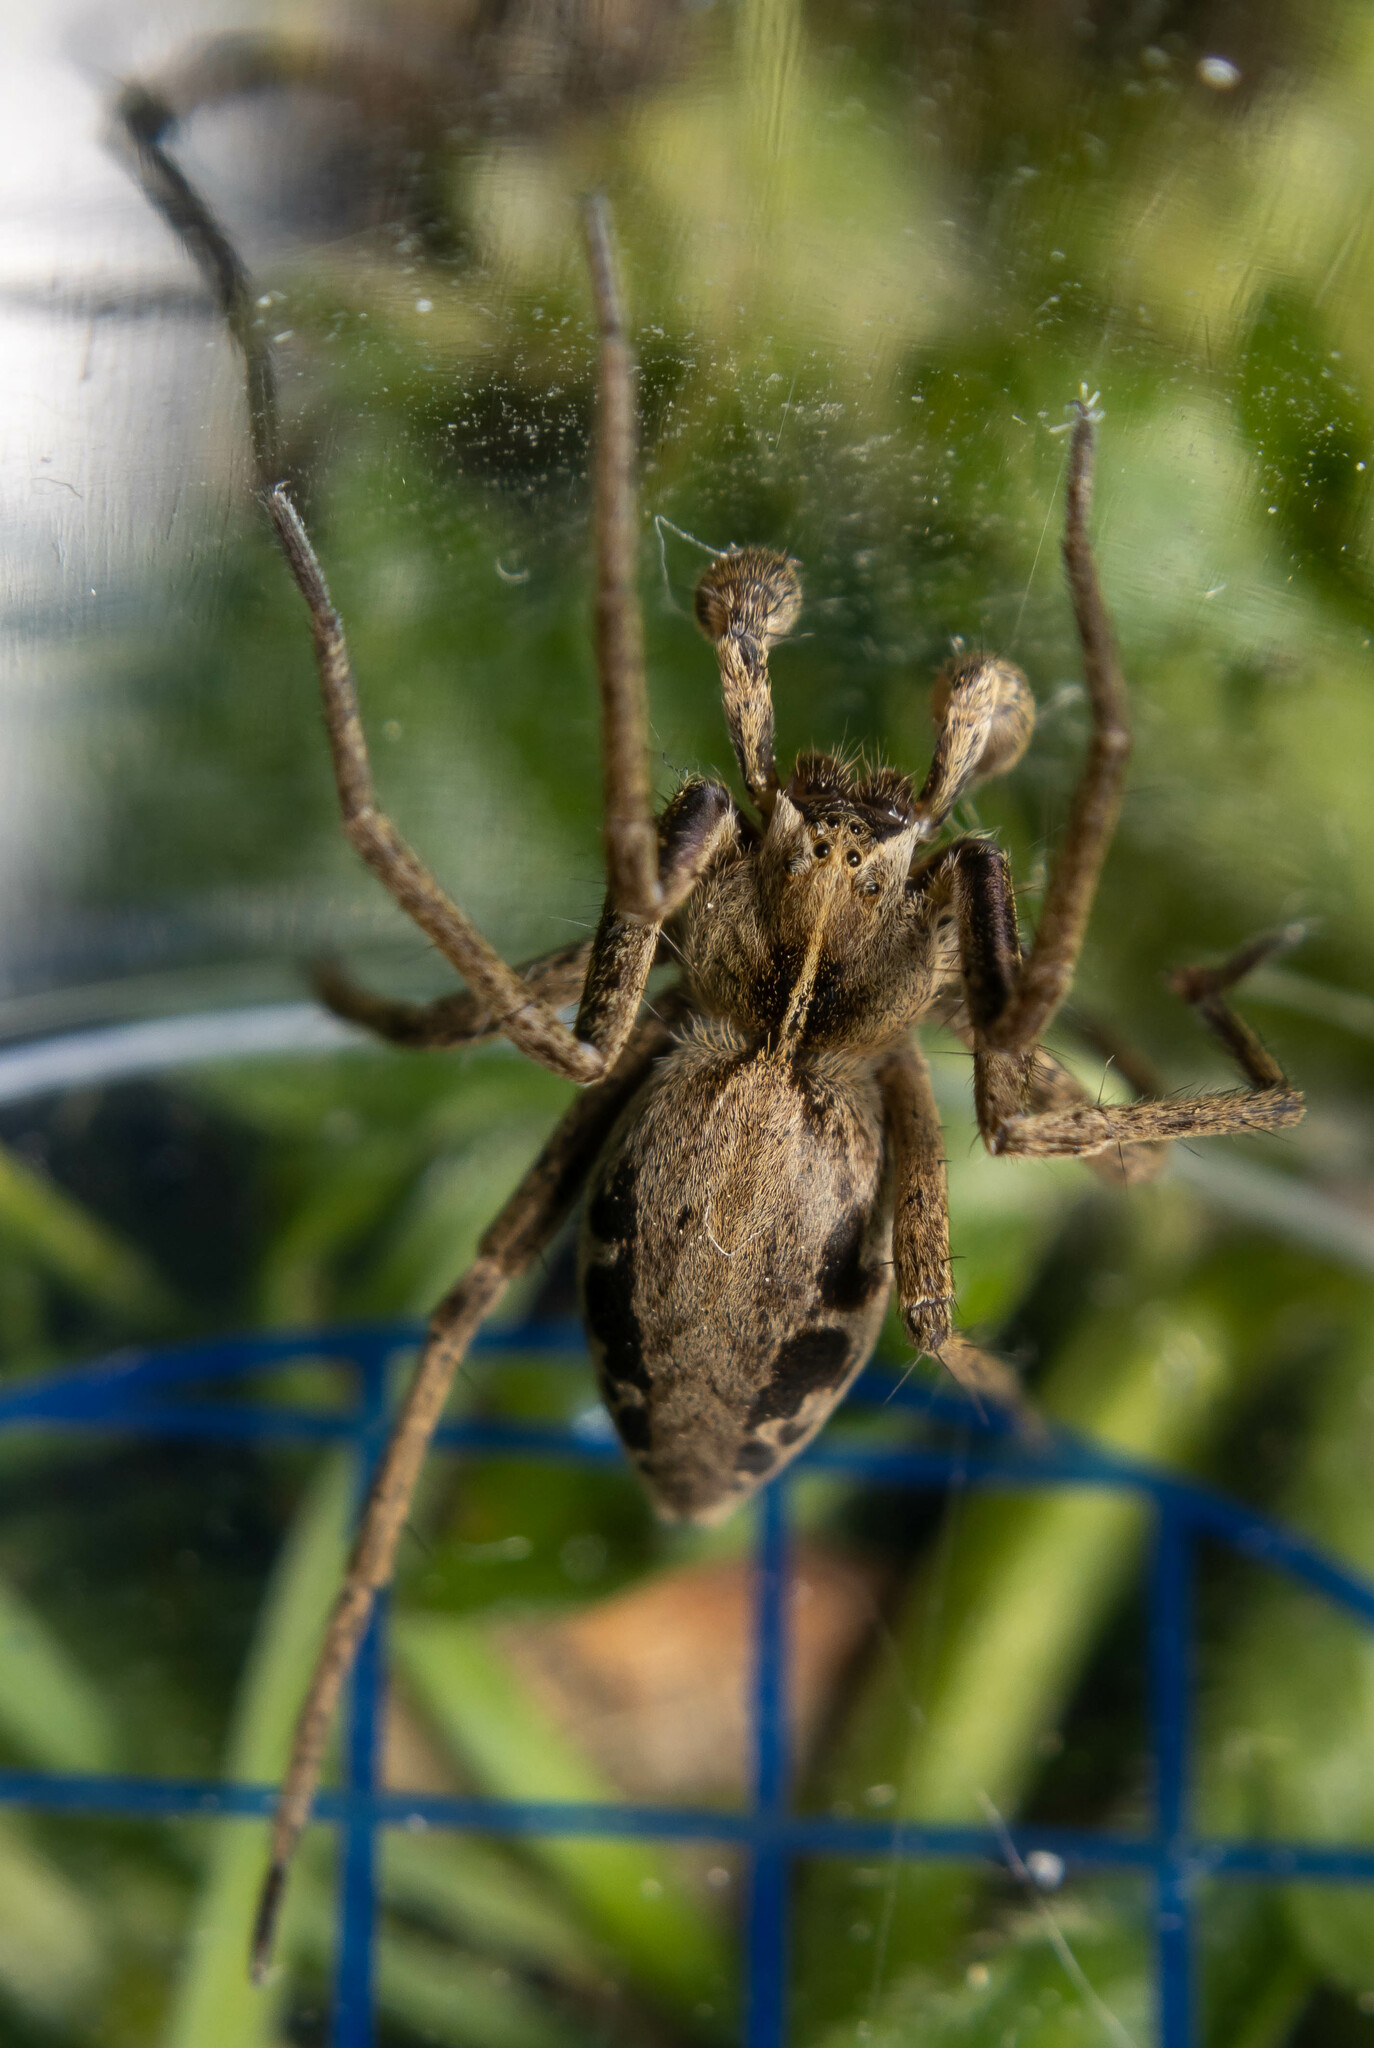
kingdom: Animalia
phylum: Arthropoda
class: Arachnida
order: Araneae
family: Pisauridae
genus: Pisaura
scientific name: Pisaura mirabilis
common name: Tent spider
